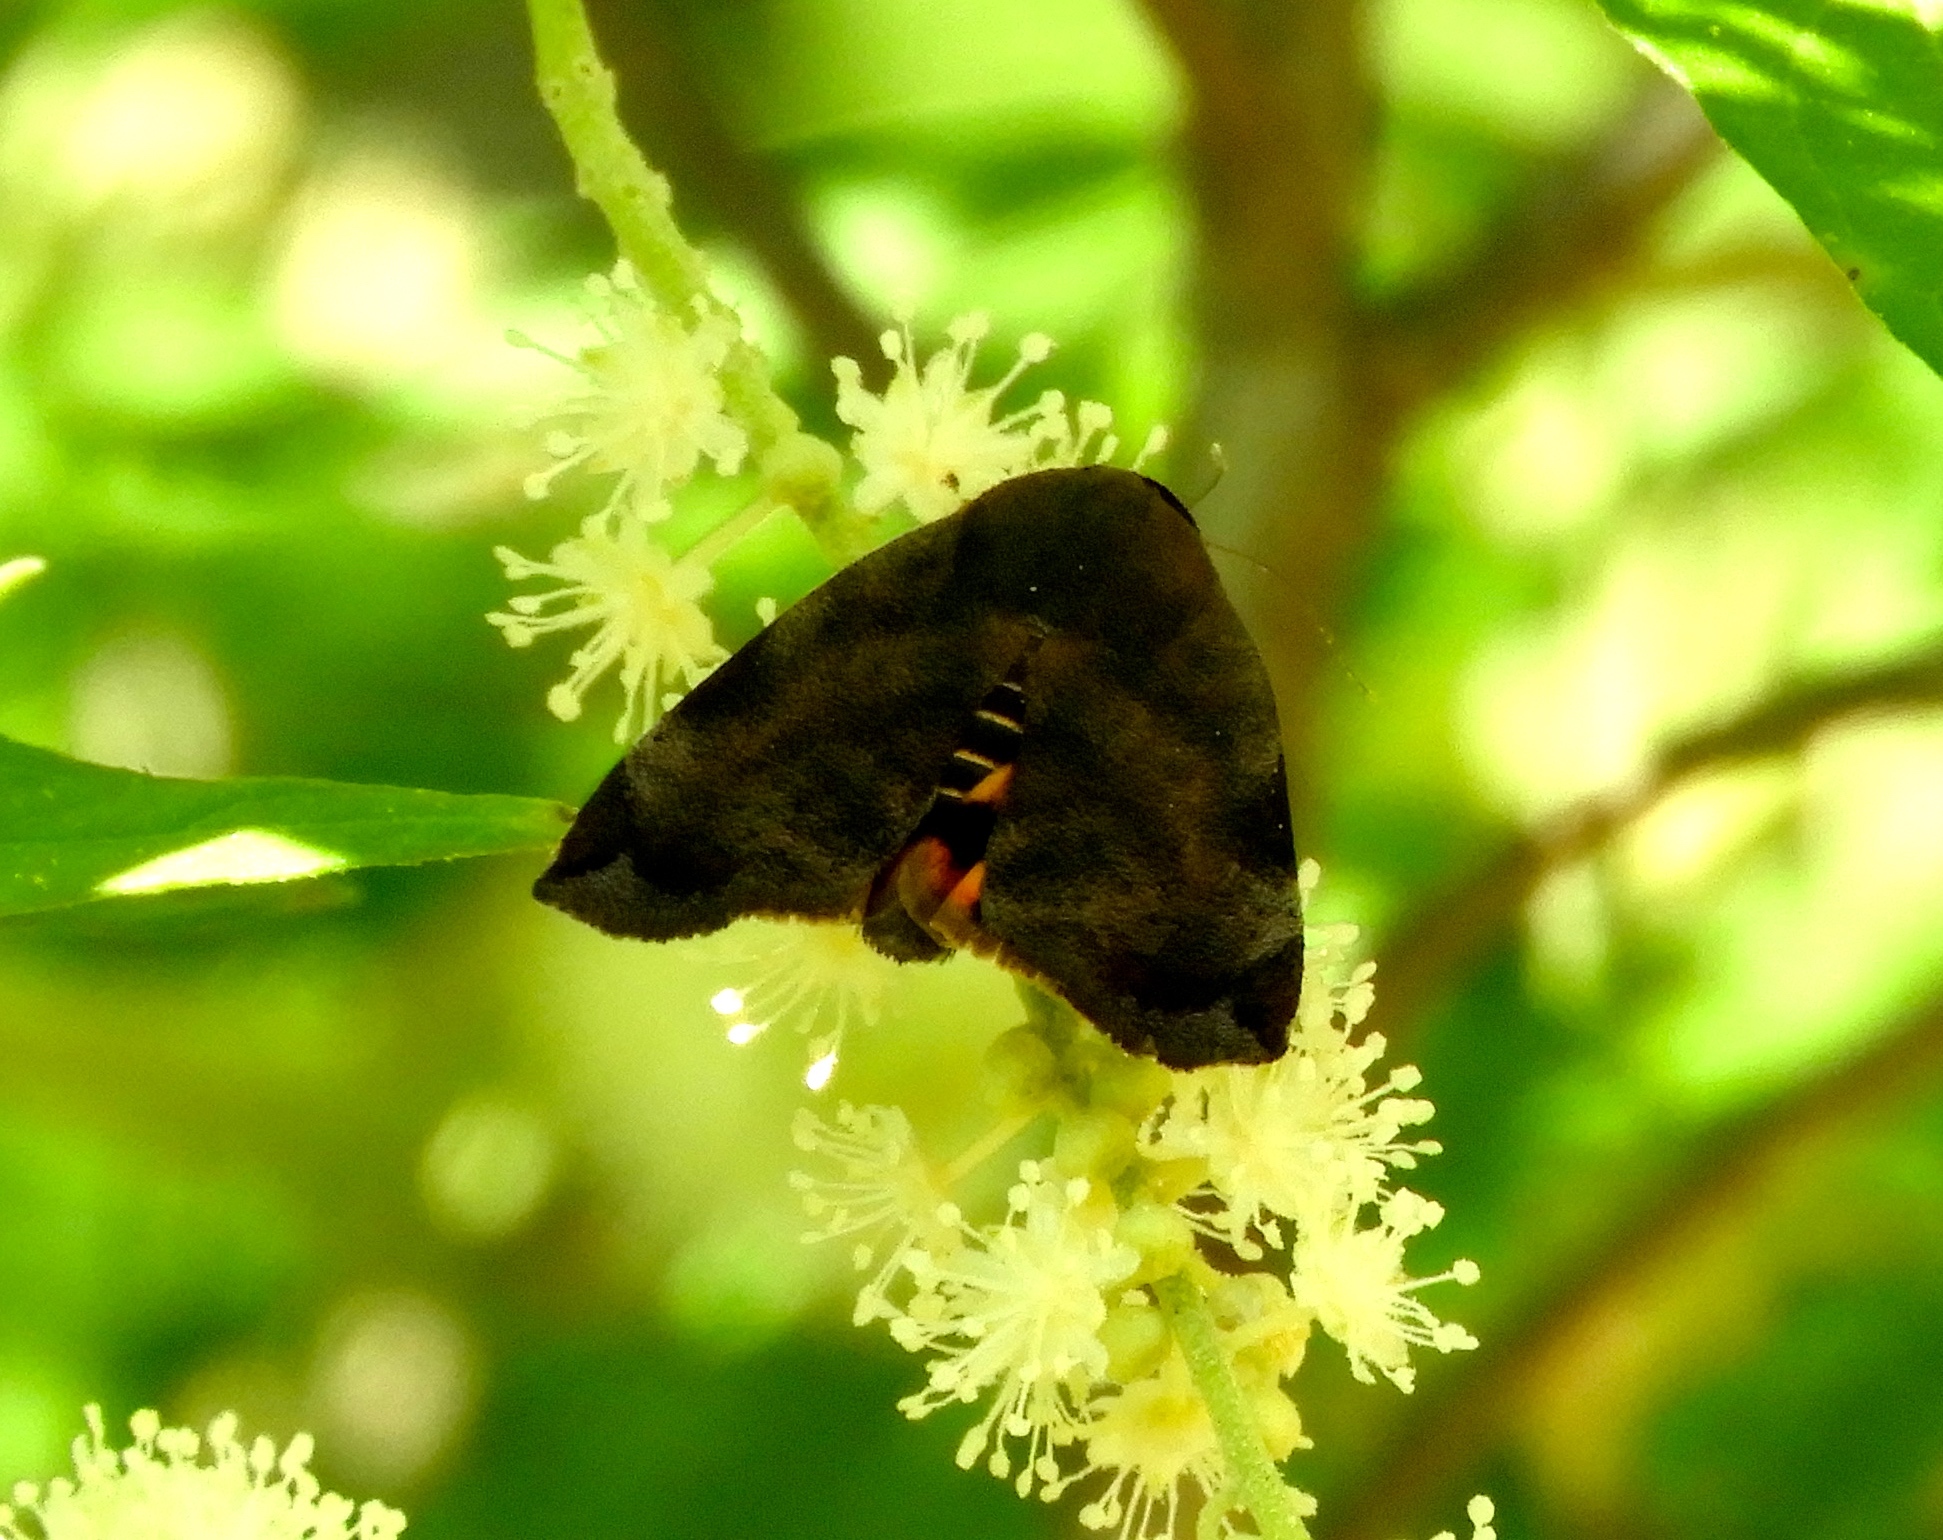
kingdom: Animalia
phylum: Arthropoda
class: Insecta
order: Lepidoptera
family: Hyblaeidae
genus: Hyblaea
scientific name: Hyblaea
